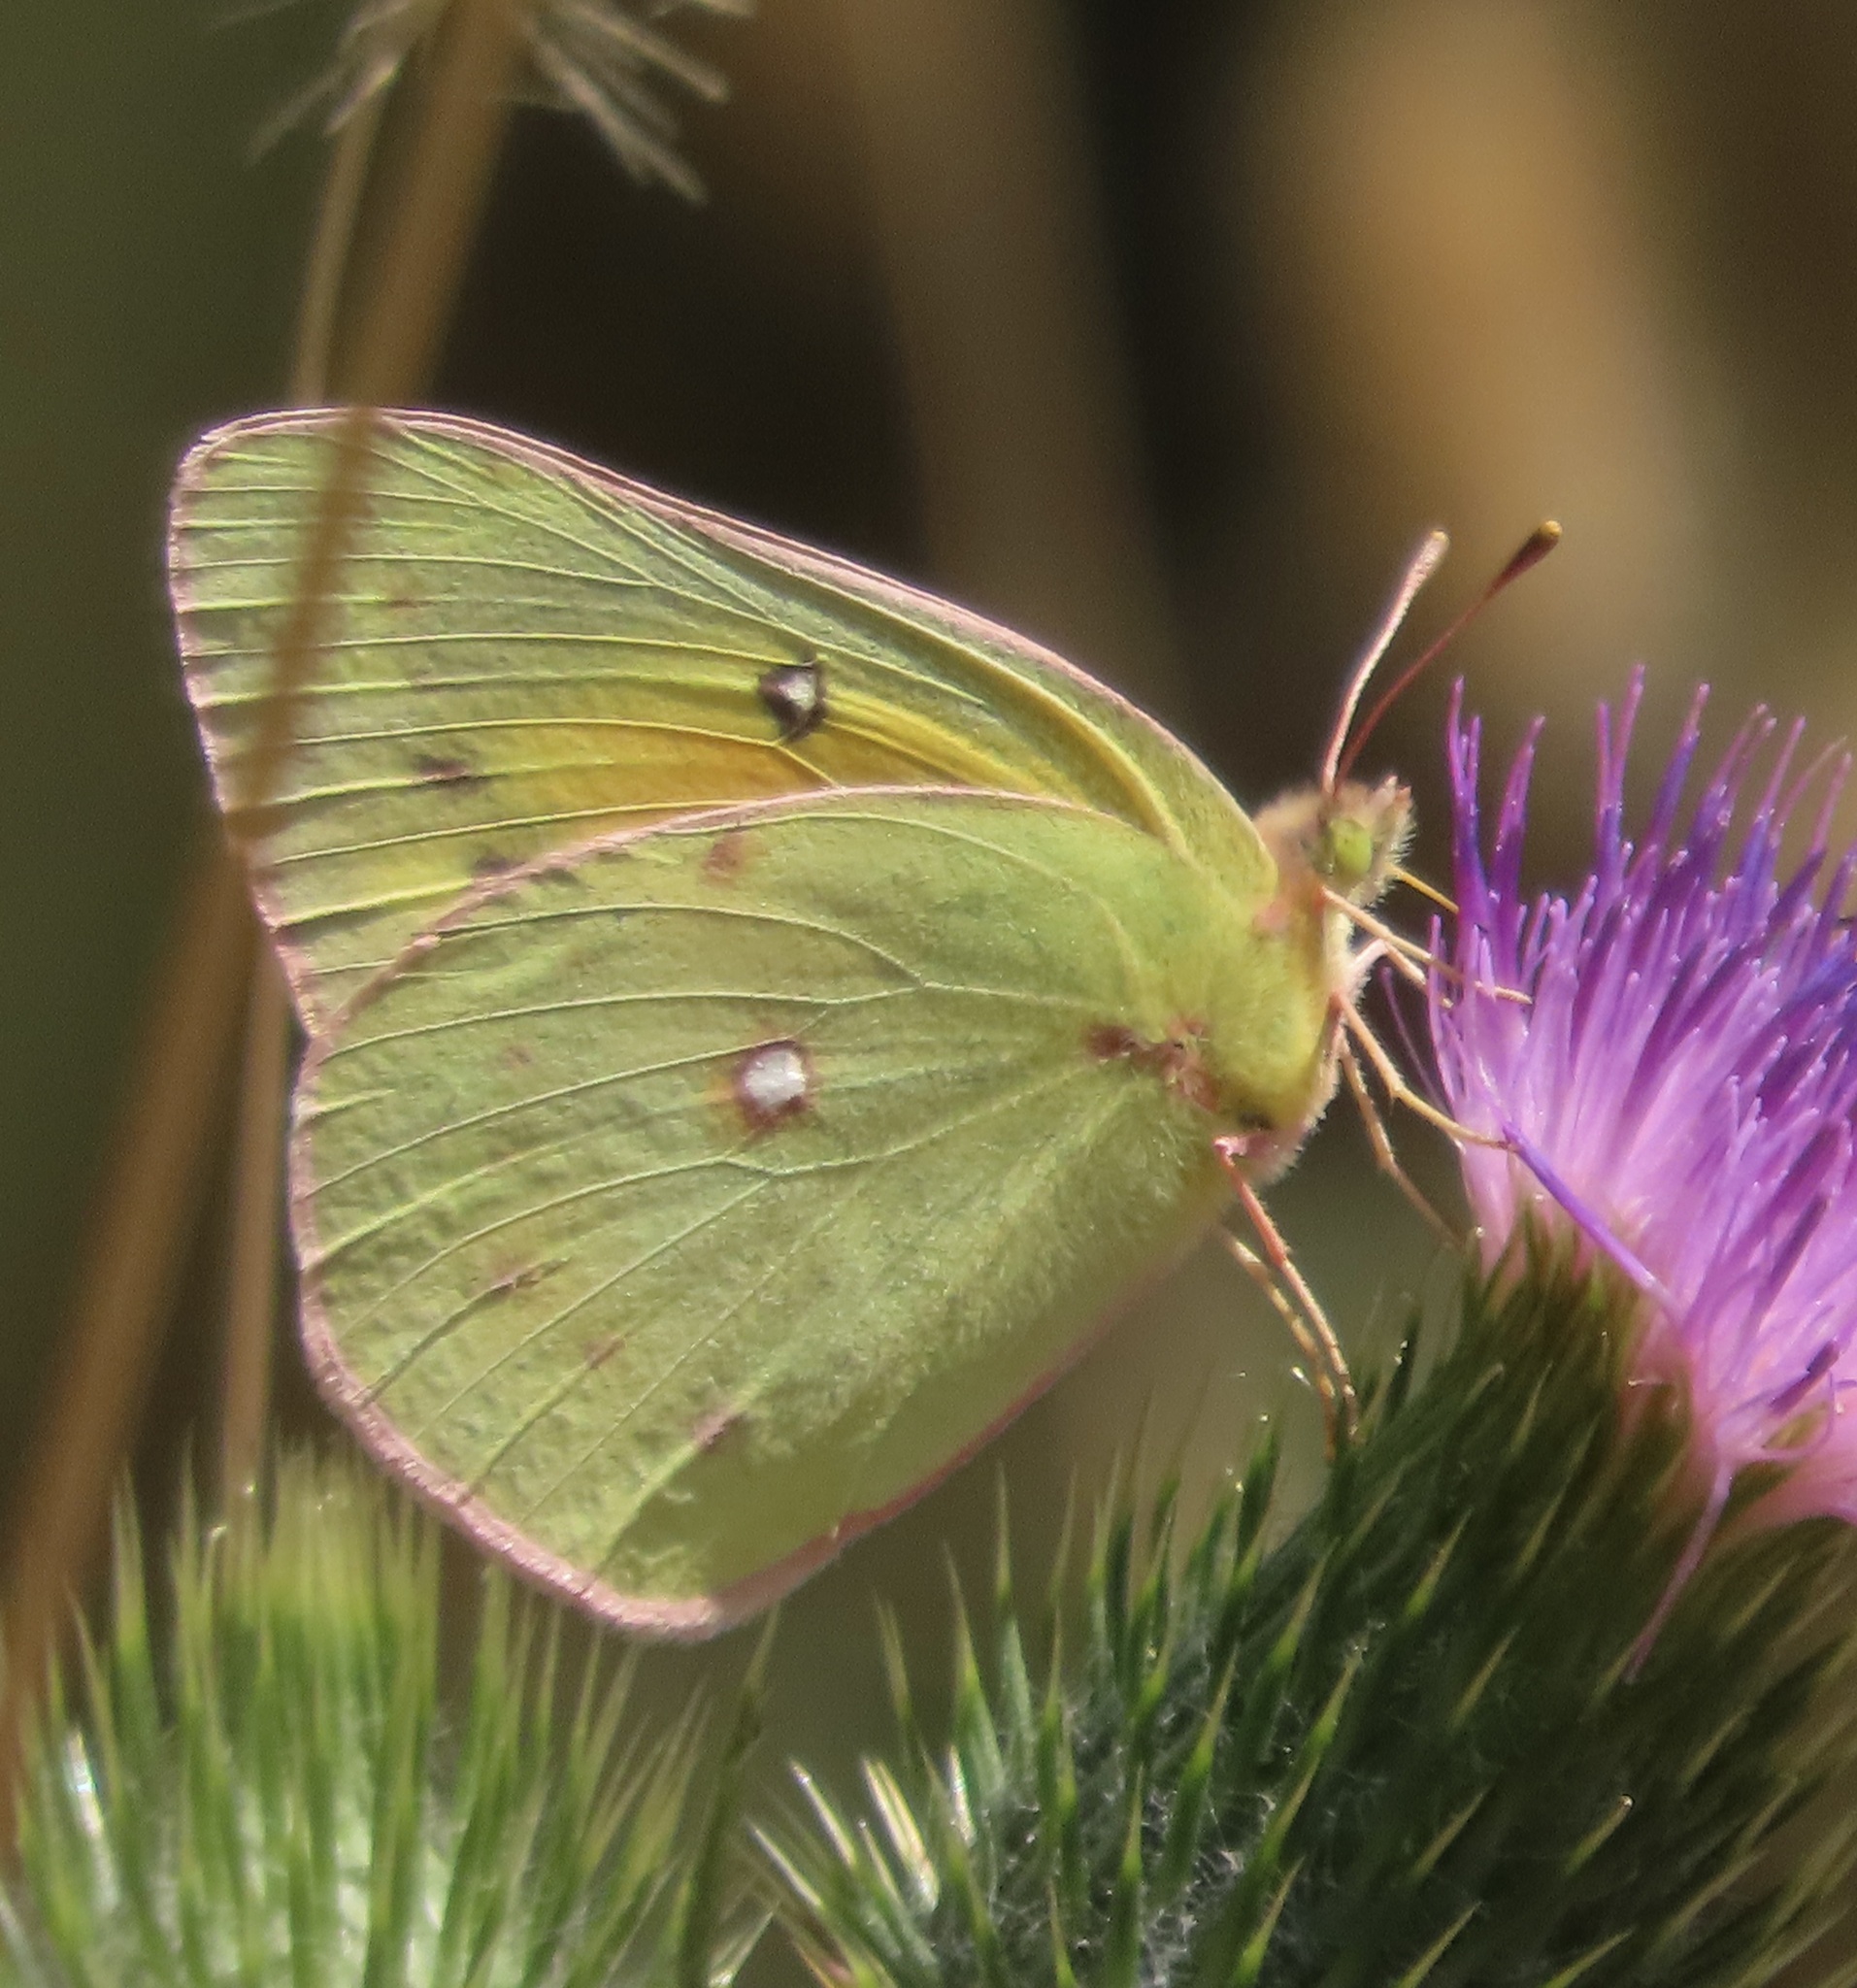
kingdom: Animalia
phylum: Arthropoda
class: Insecta
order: Lepidoptera
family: Pieridae
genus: Colias
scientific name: Colias eurytheme
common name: Alfalfa butterfly
